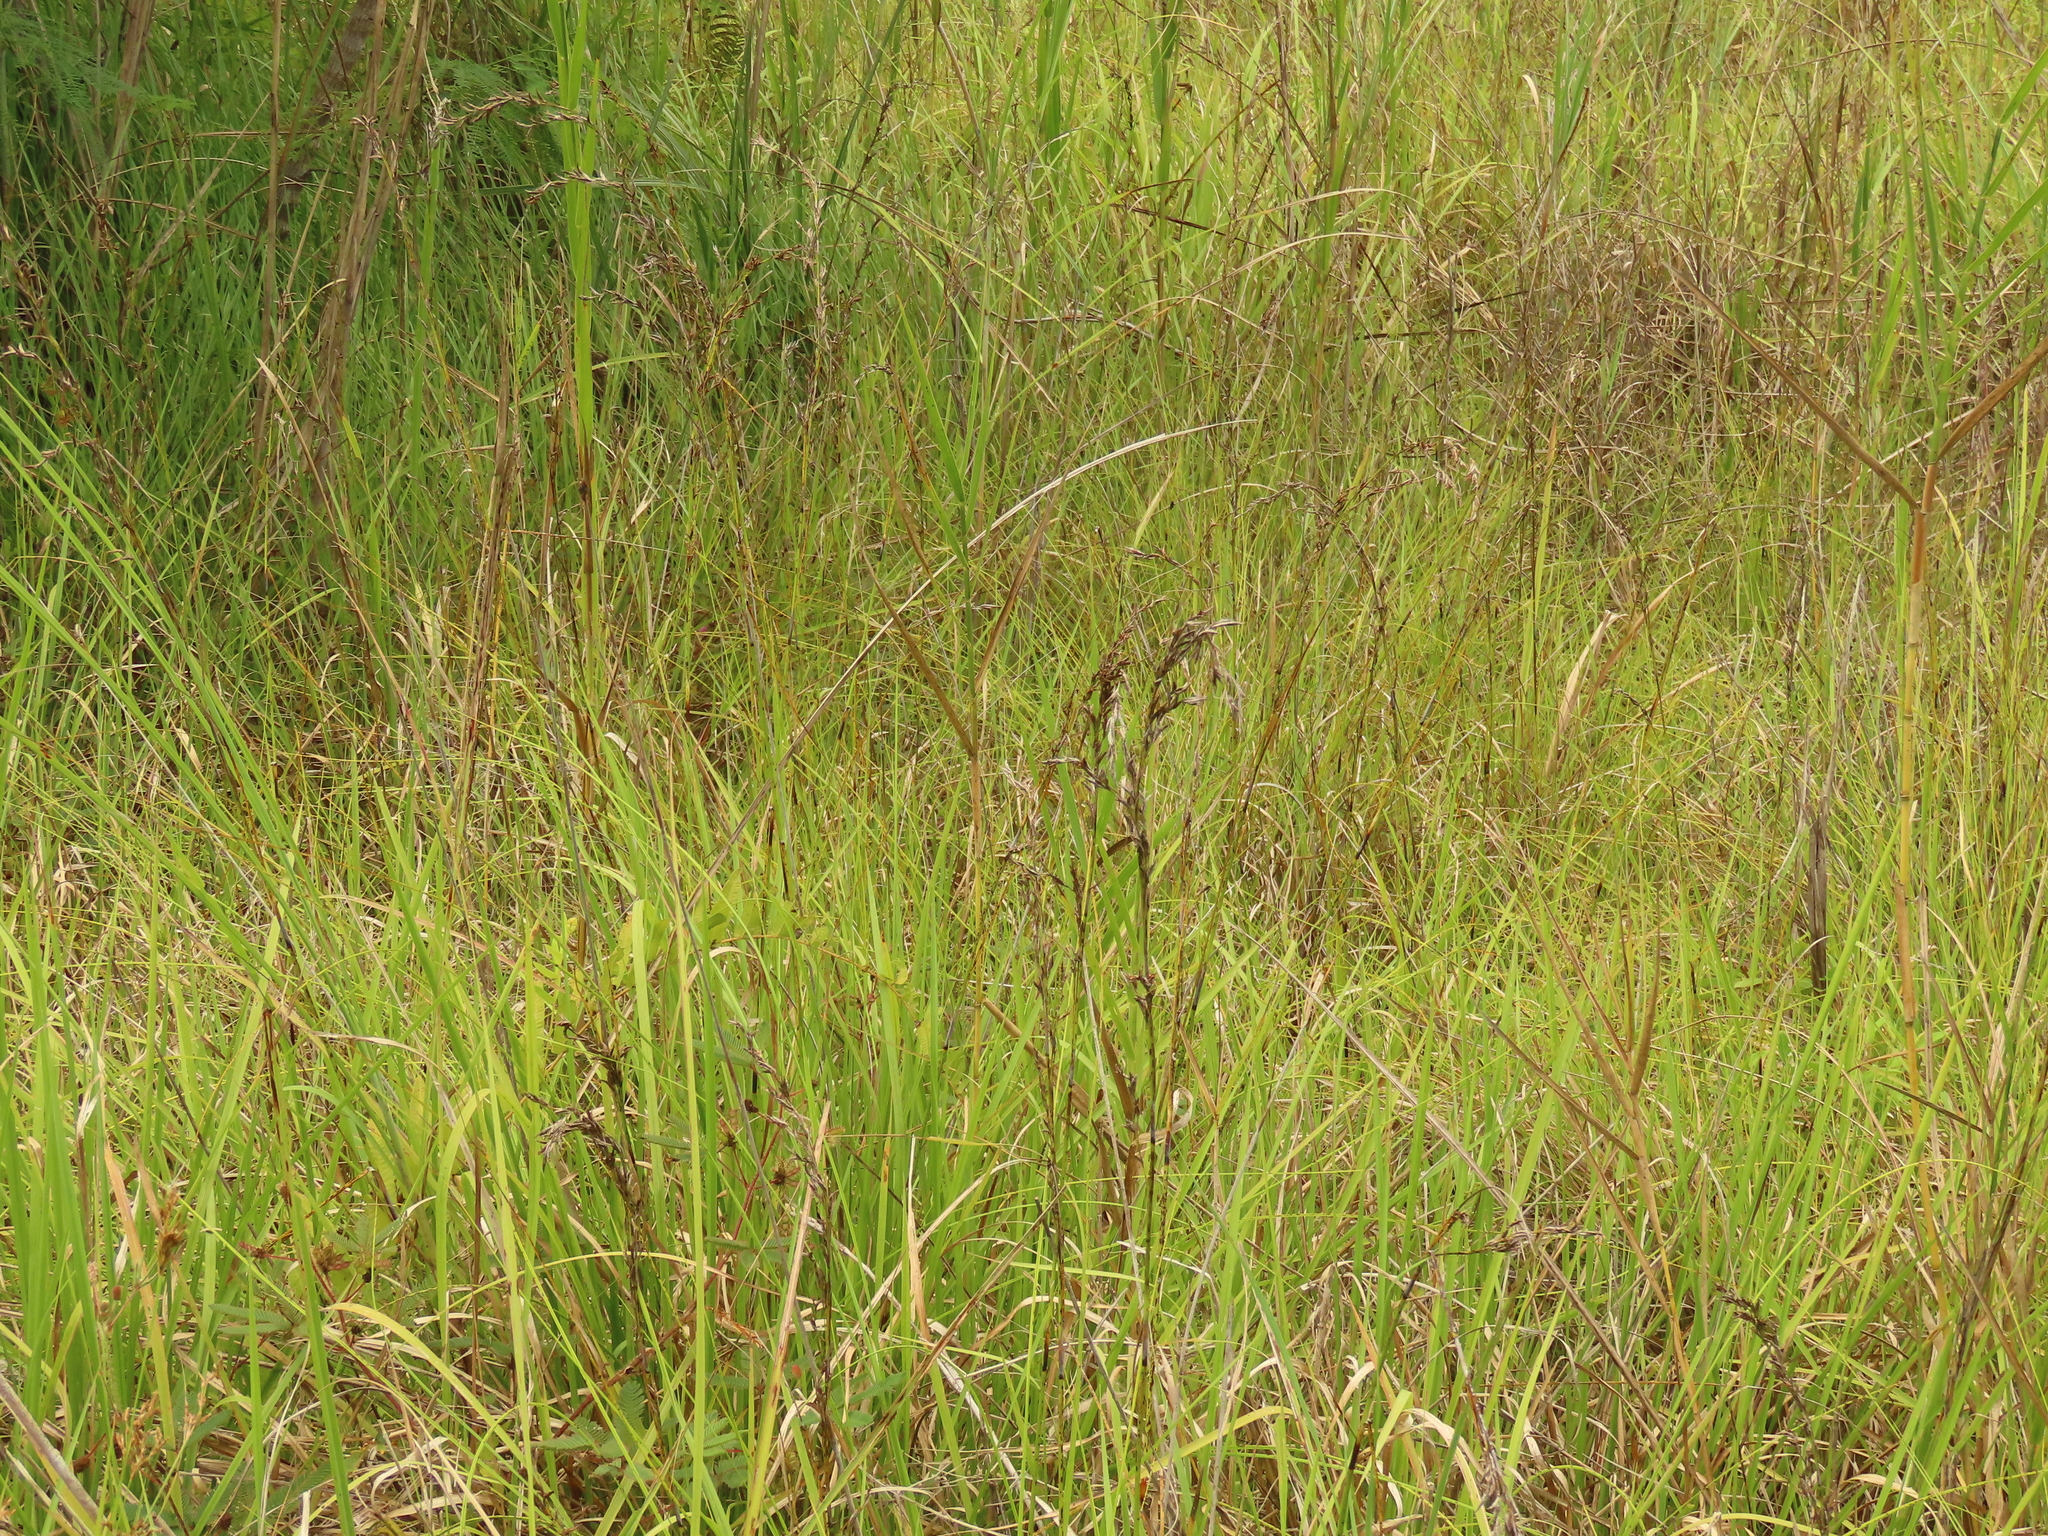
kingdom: Plantae
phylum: Tracheophyta
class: Liliopsida
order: Poales
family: Cyperaceae
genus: Schoenus
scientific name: Schoenus falcatus
